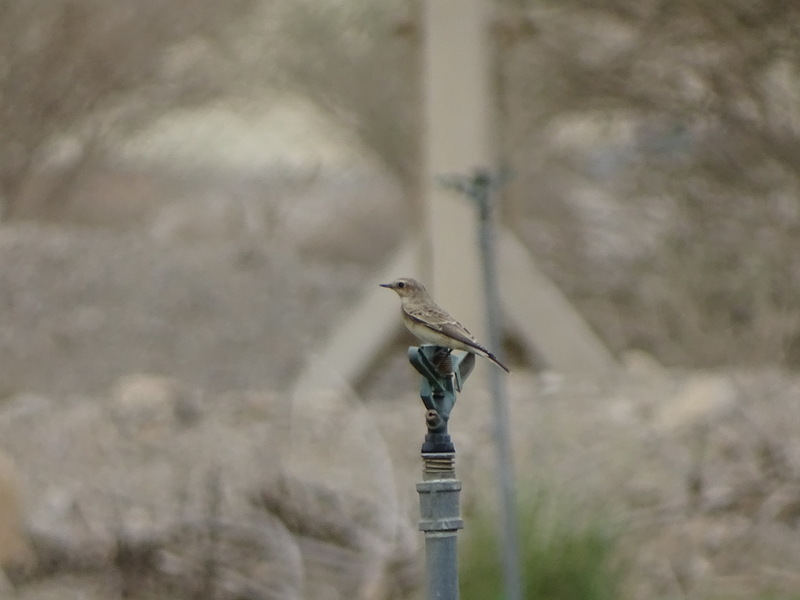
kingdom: Animalia
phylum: Chordata
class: Aves
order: Passeriformes
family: Muscicapidae
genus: Oenanthe
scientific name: Oenanthe pleschanka
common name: Pied wheatear
